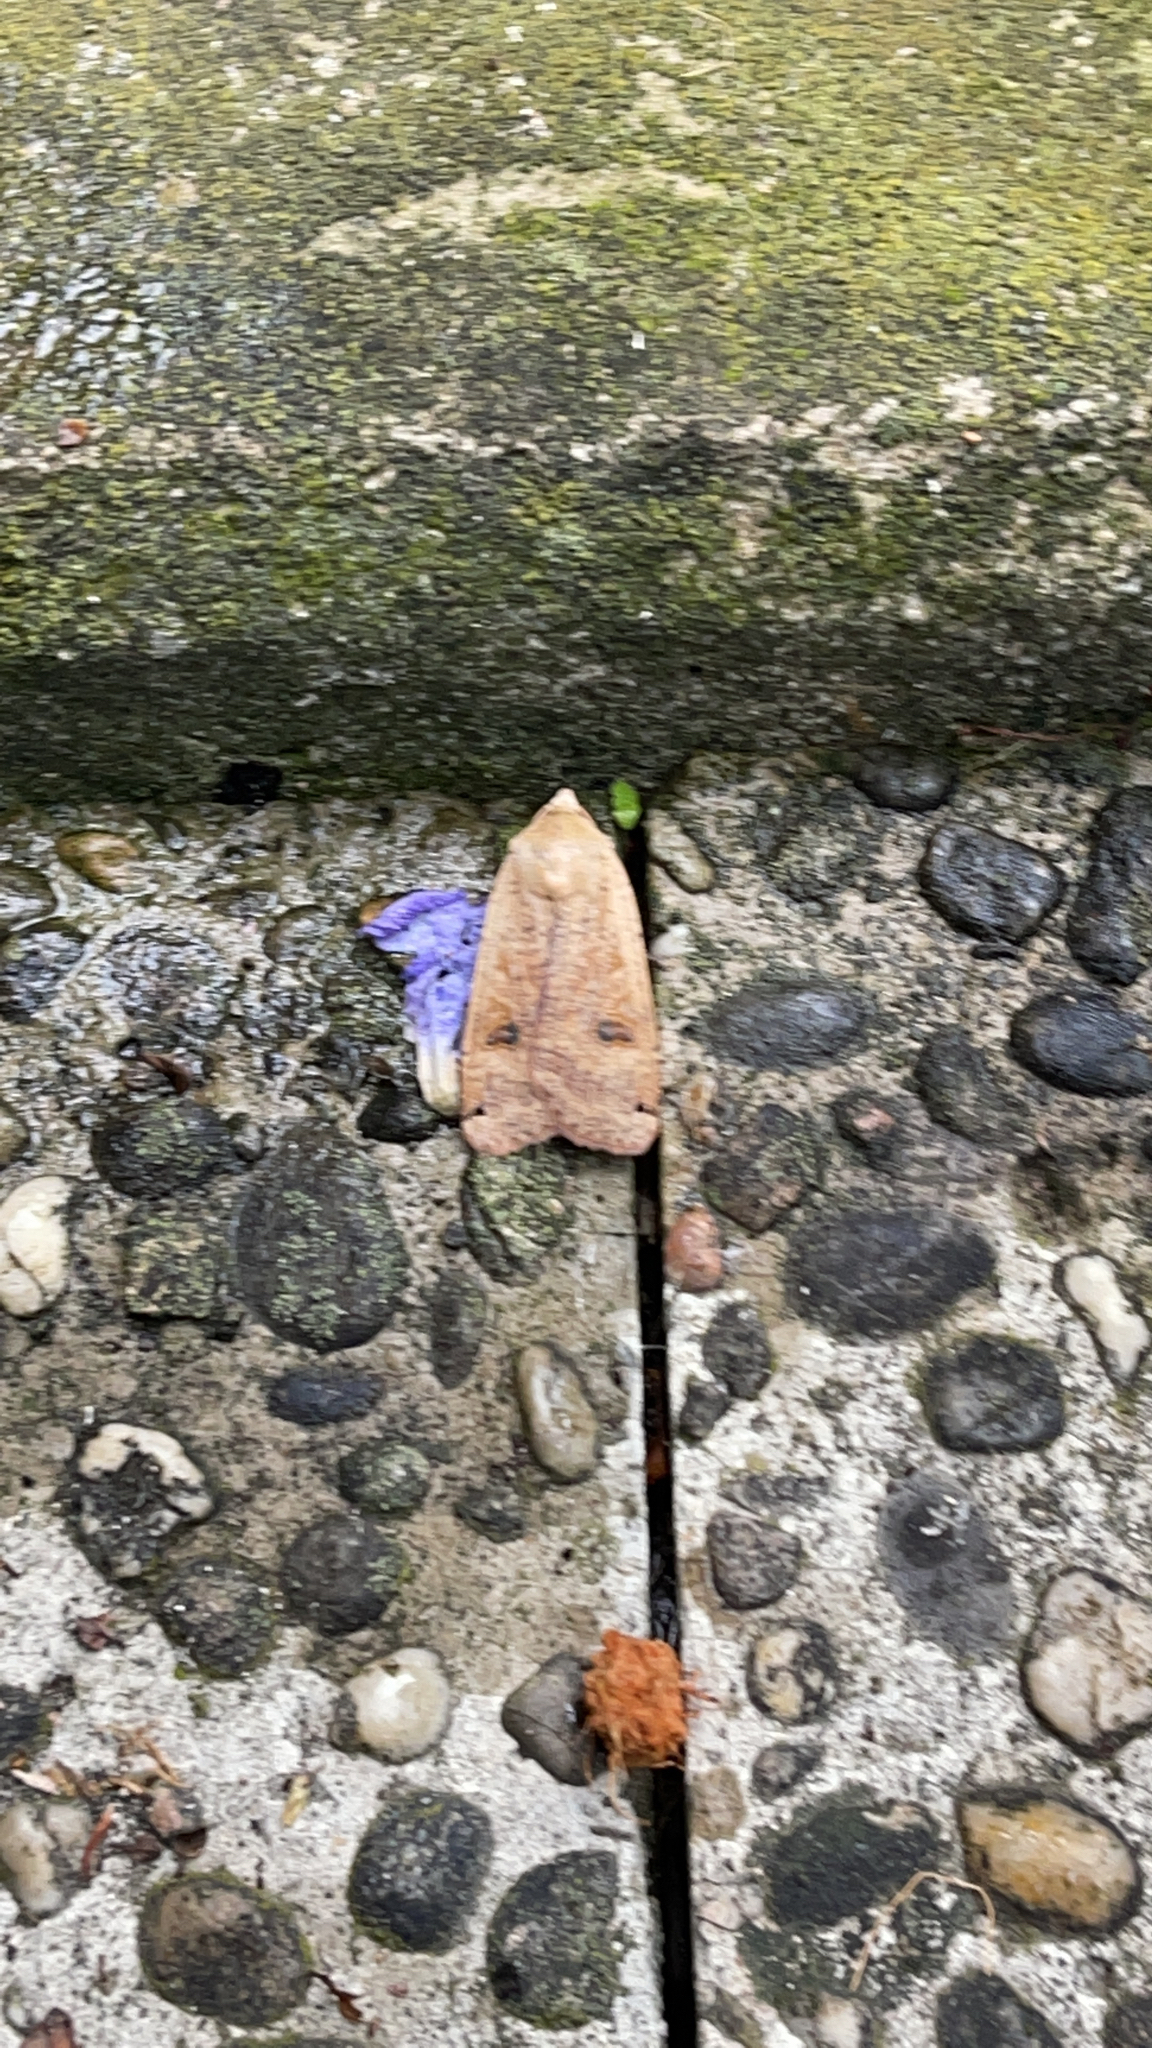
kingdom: Animalia
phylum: Arthropoda
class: Insecta
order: Lepidoptera
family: Noctuidae
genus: Noctua
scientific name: Noctua pronuba
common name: Large yellow underwing
